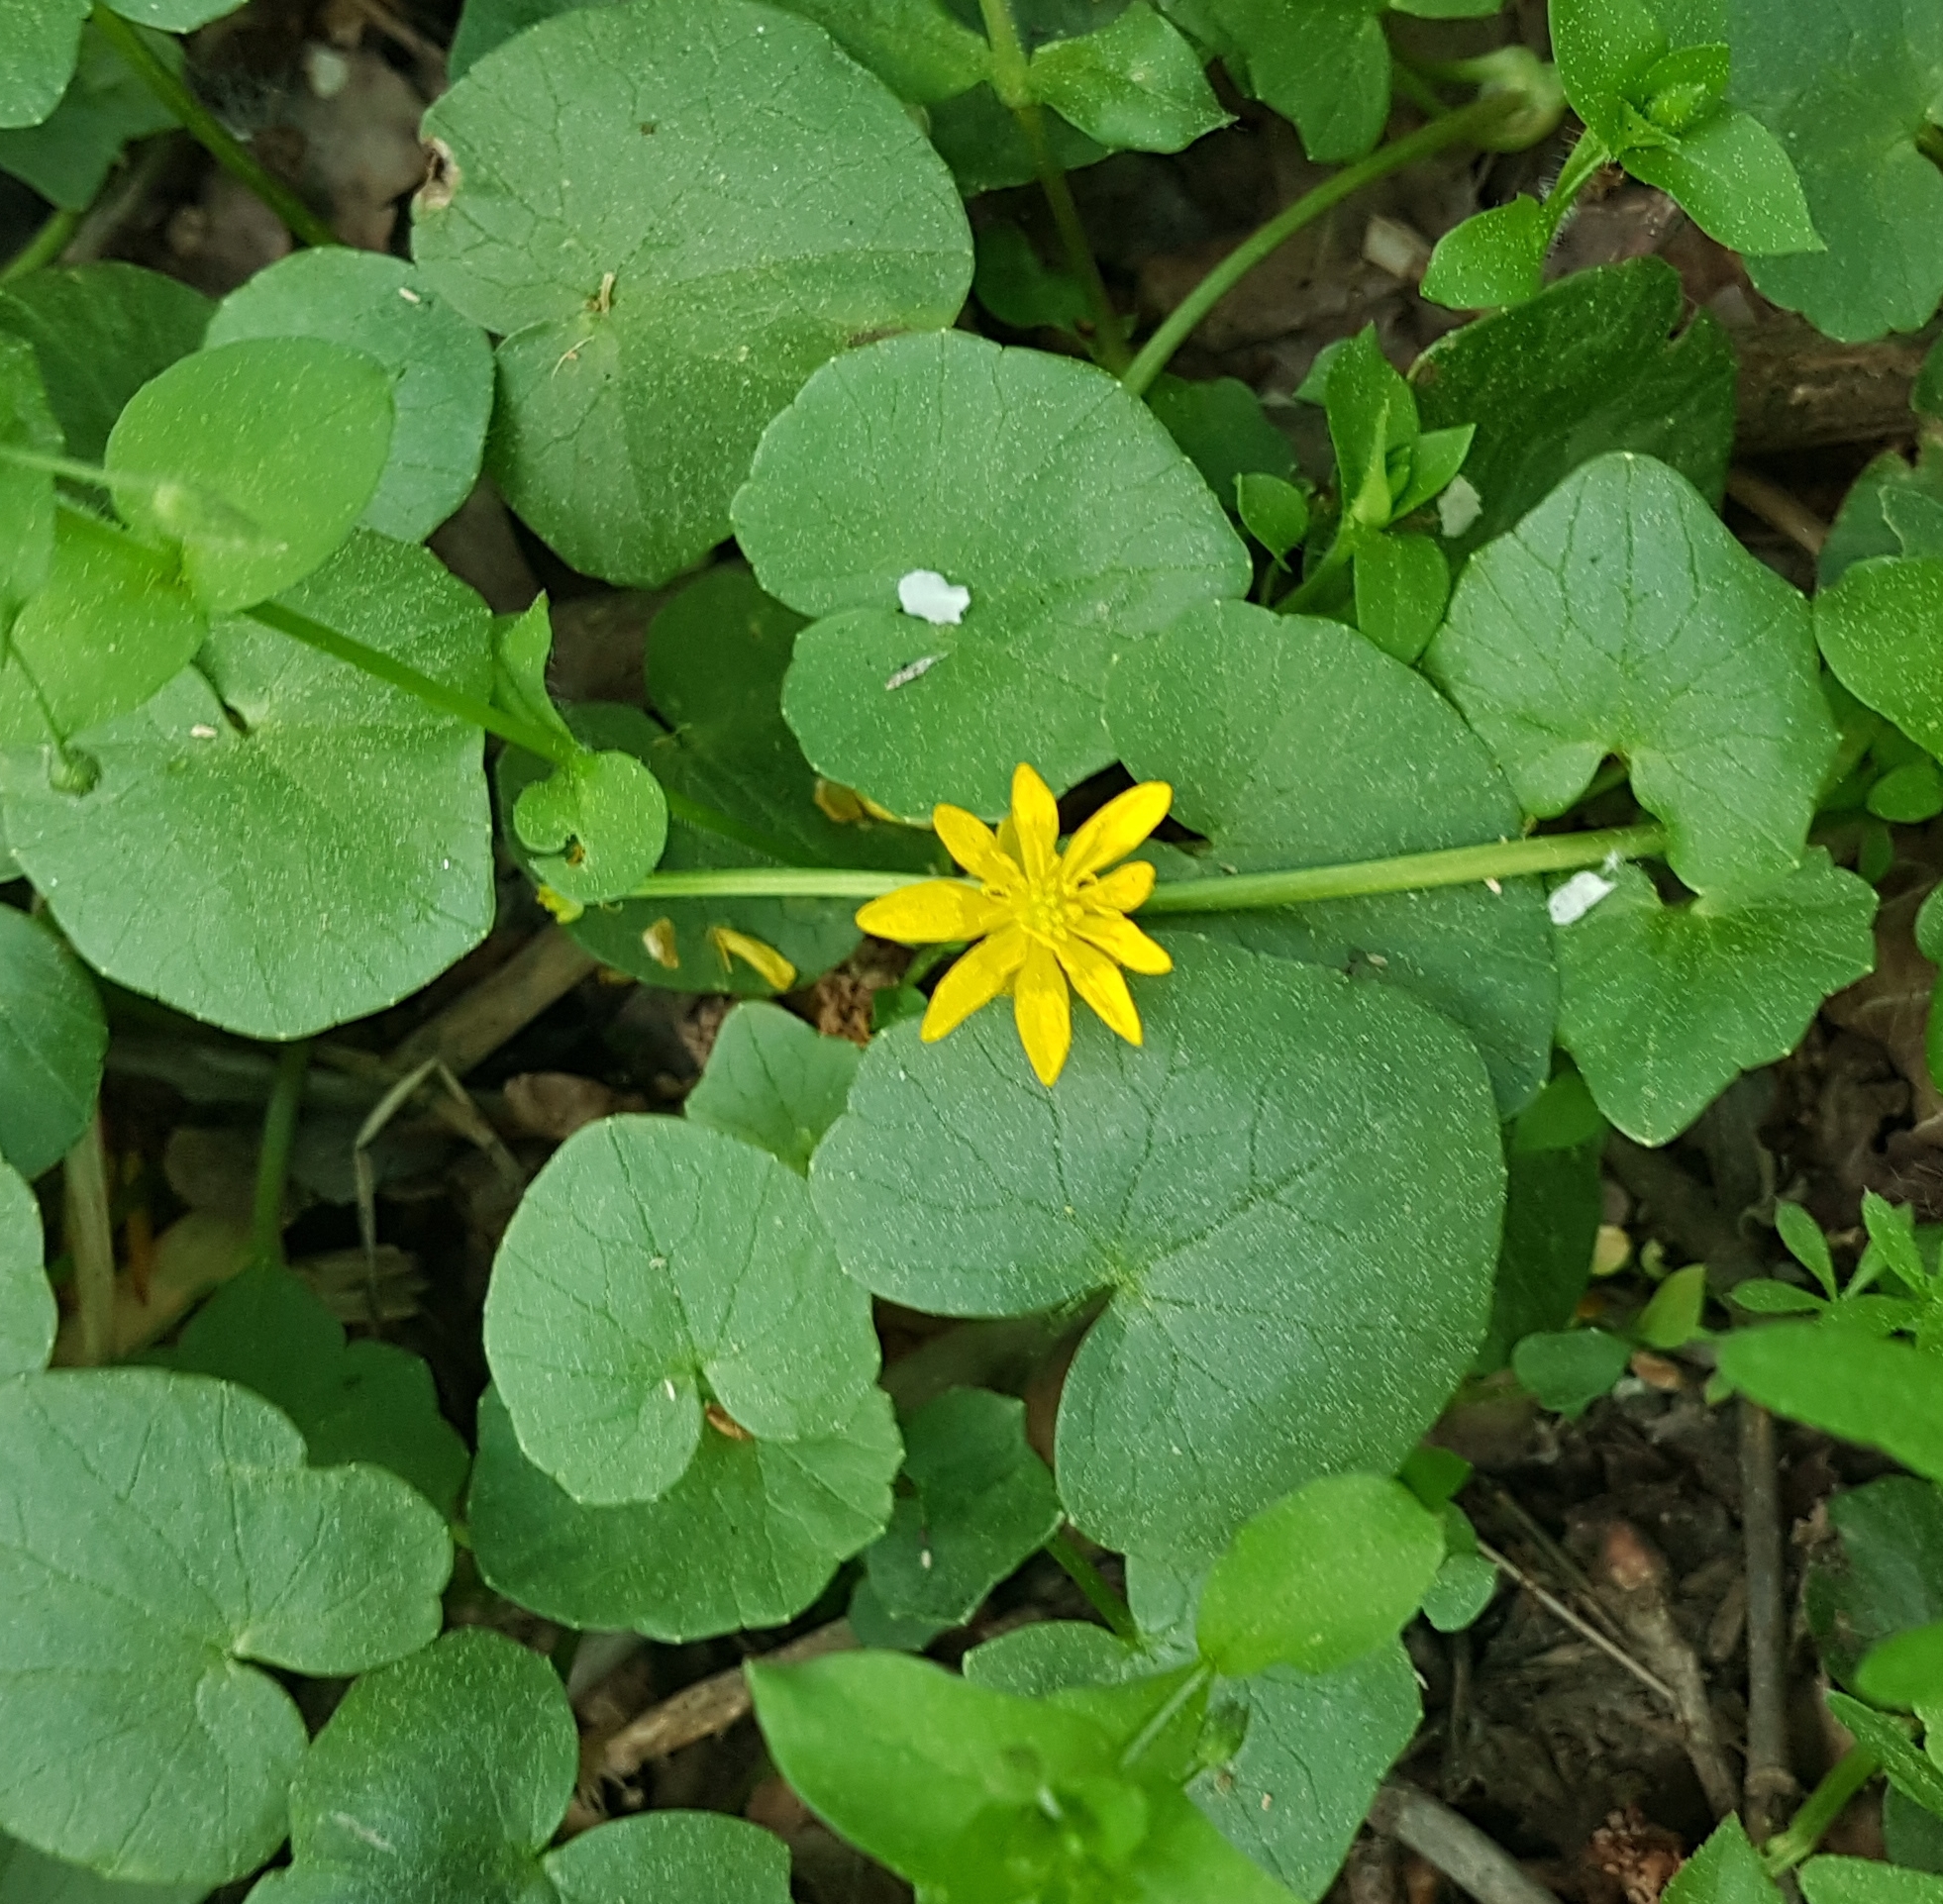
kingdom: Plantae
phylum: Tracheophyta
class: Magnoliopsida
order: Ranunculales
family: Ranunculaceae
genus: Ficaria
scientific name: Ficaria verna
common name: Lesser celandine
